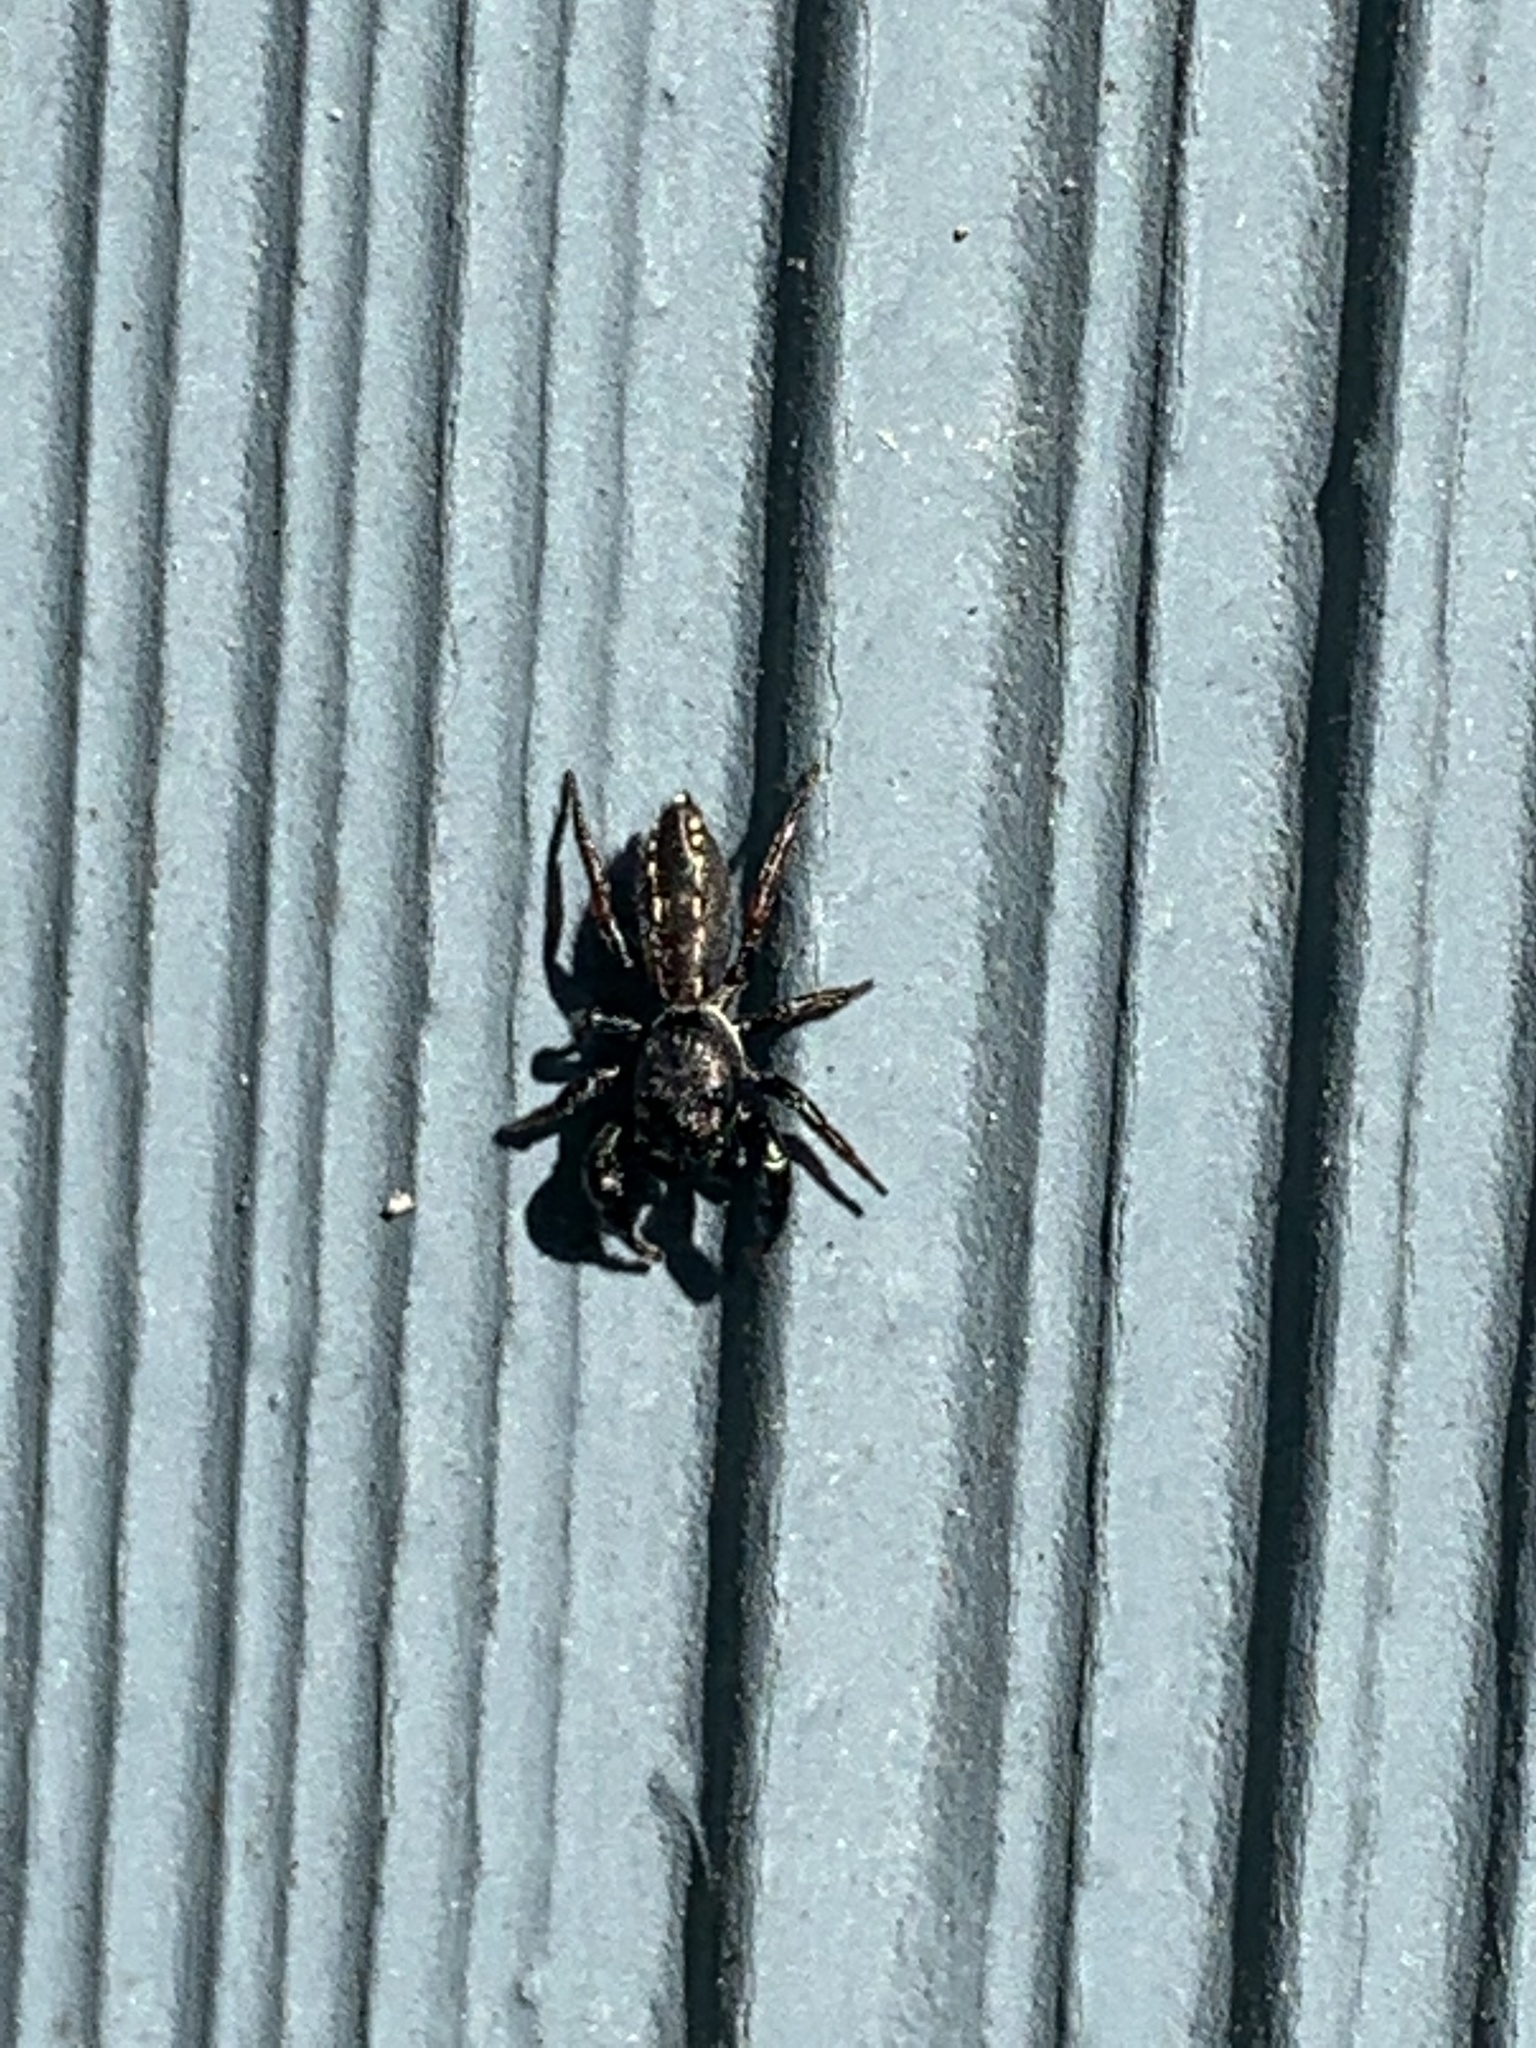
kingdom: Animalia
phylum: Arthropoda
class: Arachnida
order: Araneae
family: Salticidae
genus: Metacyrba
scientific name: Metacyrba taeniola
